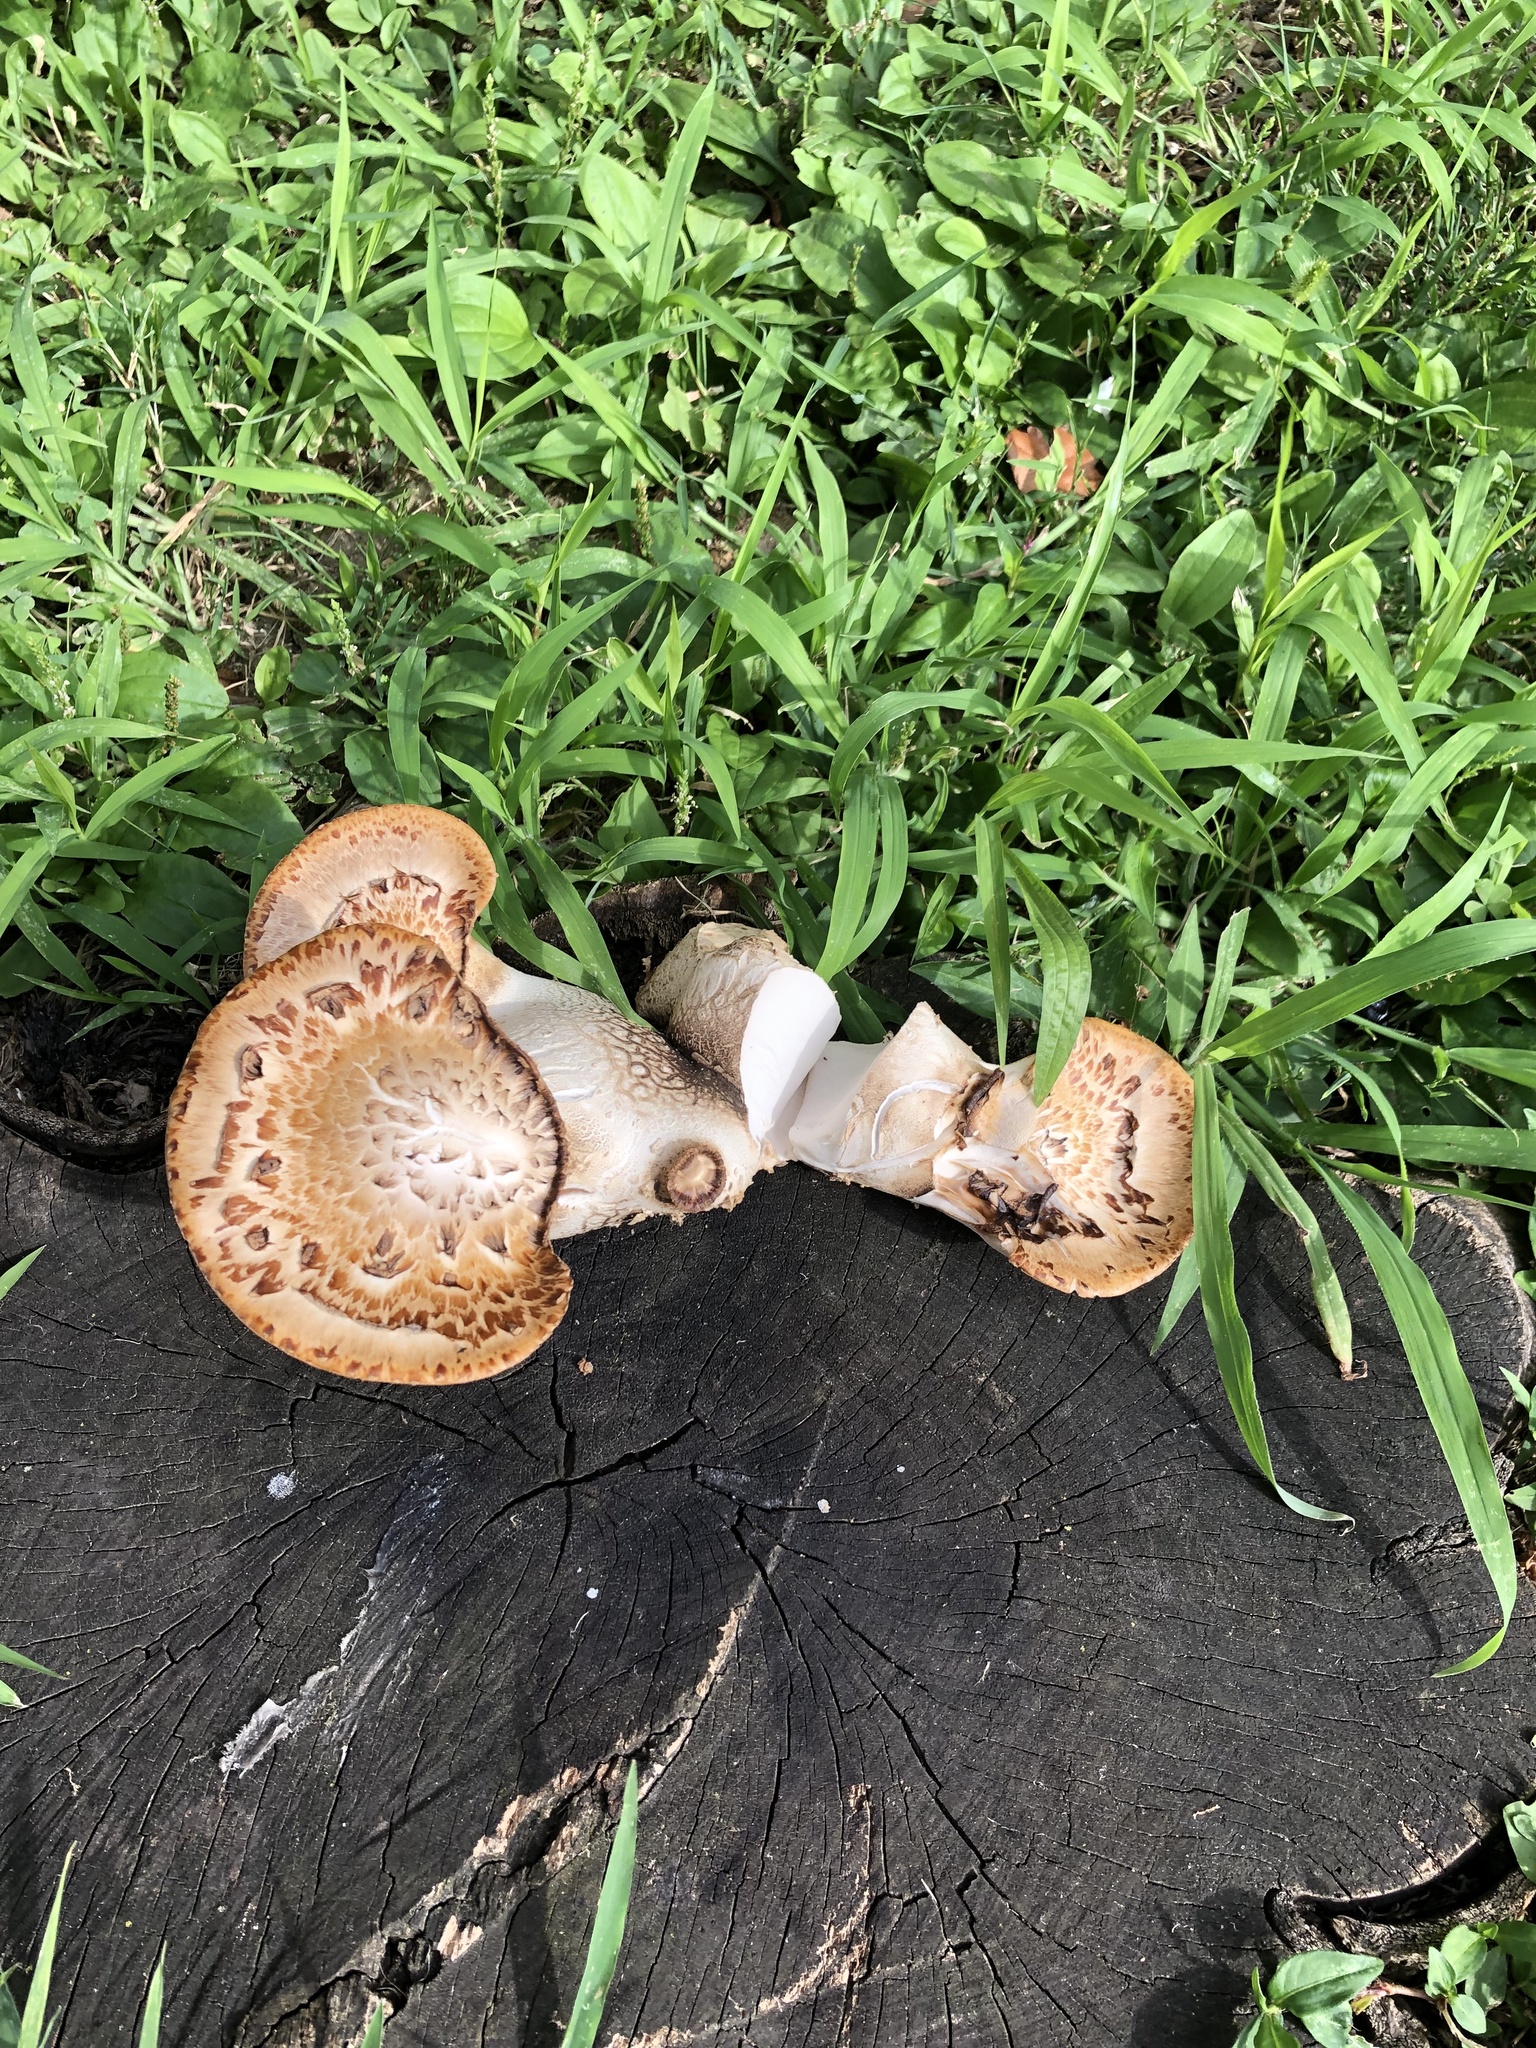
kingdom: Fungi
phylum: Basidiomycota
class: Agaricomycetes
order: Polyporales
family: Polyporaceae
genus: Cerioporus
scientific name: Cerioporus squamosus
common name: Dryad's saddle
